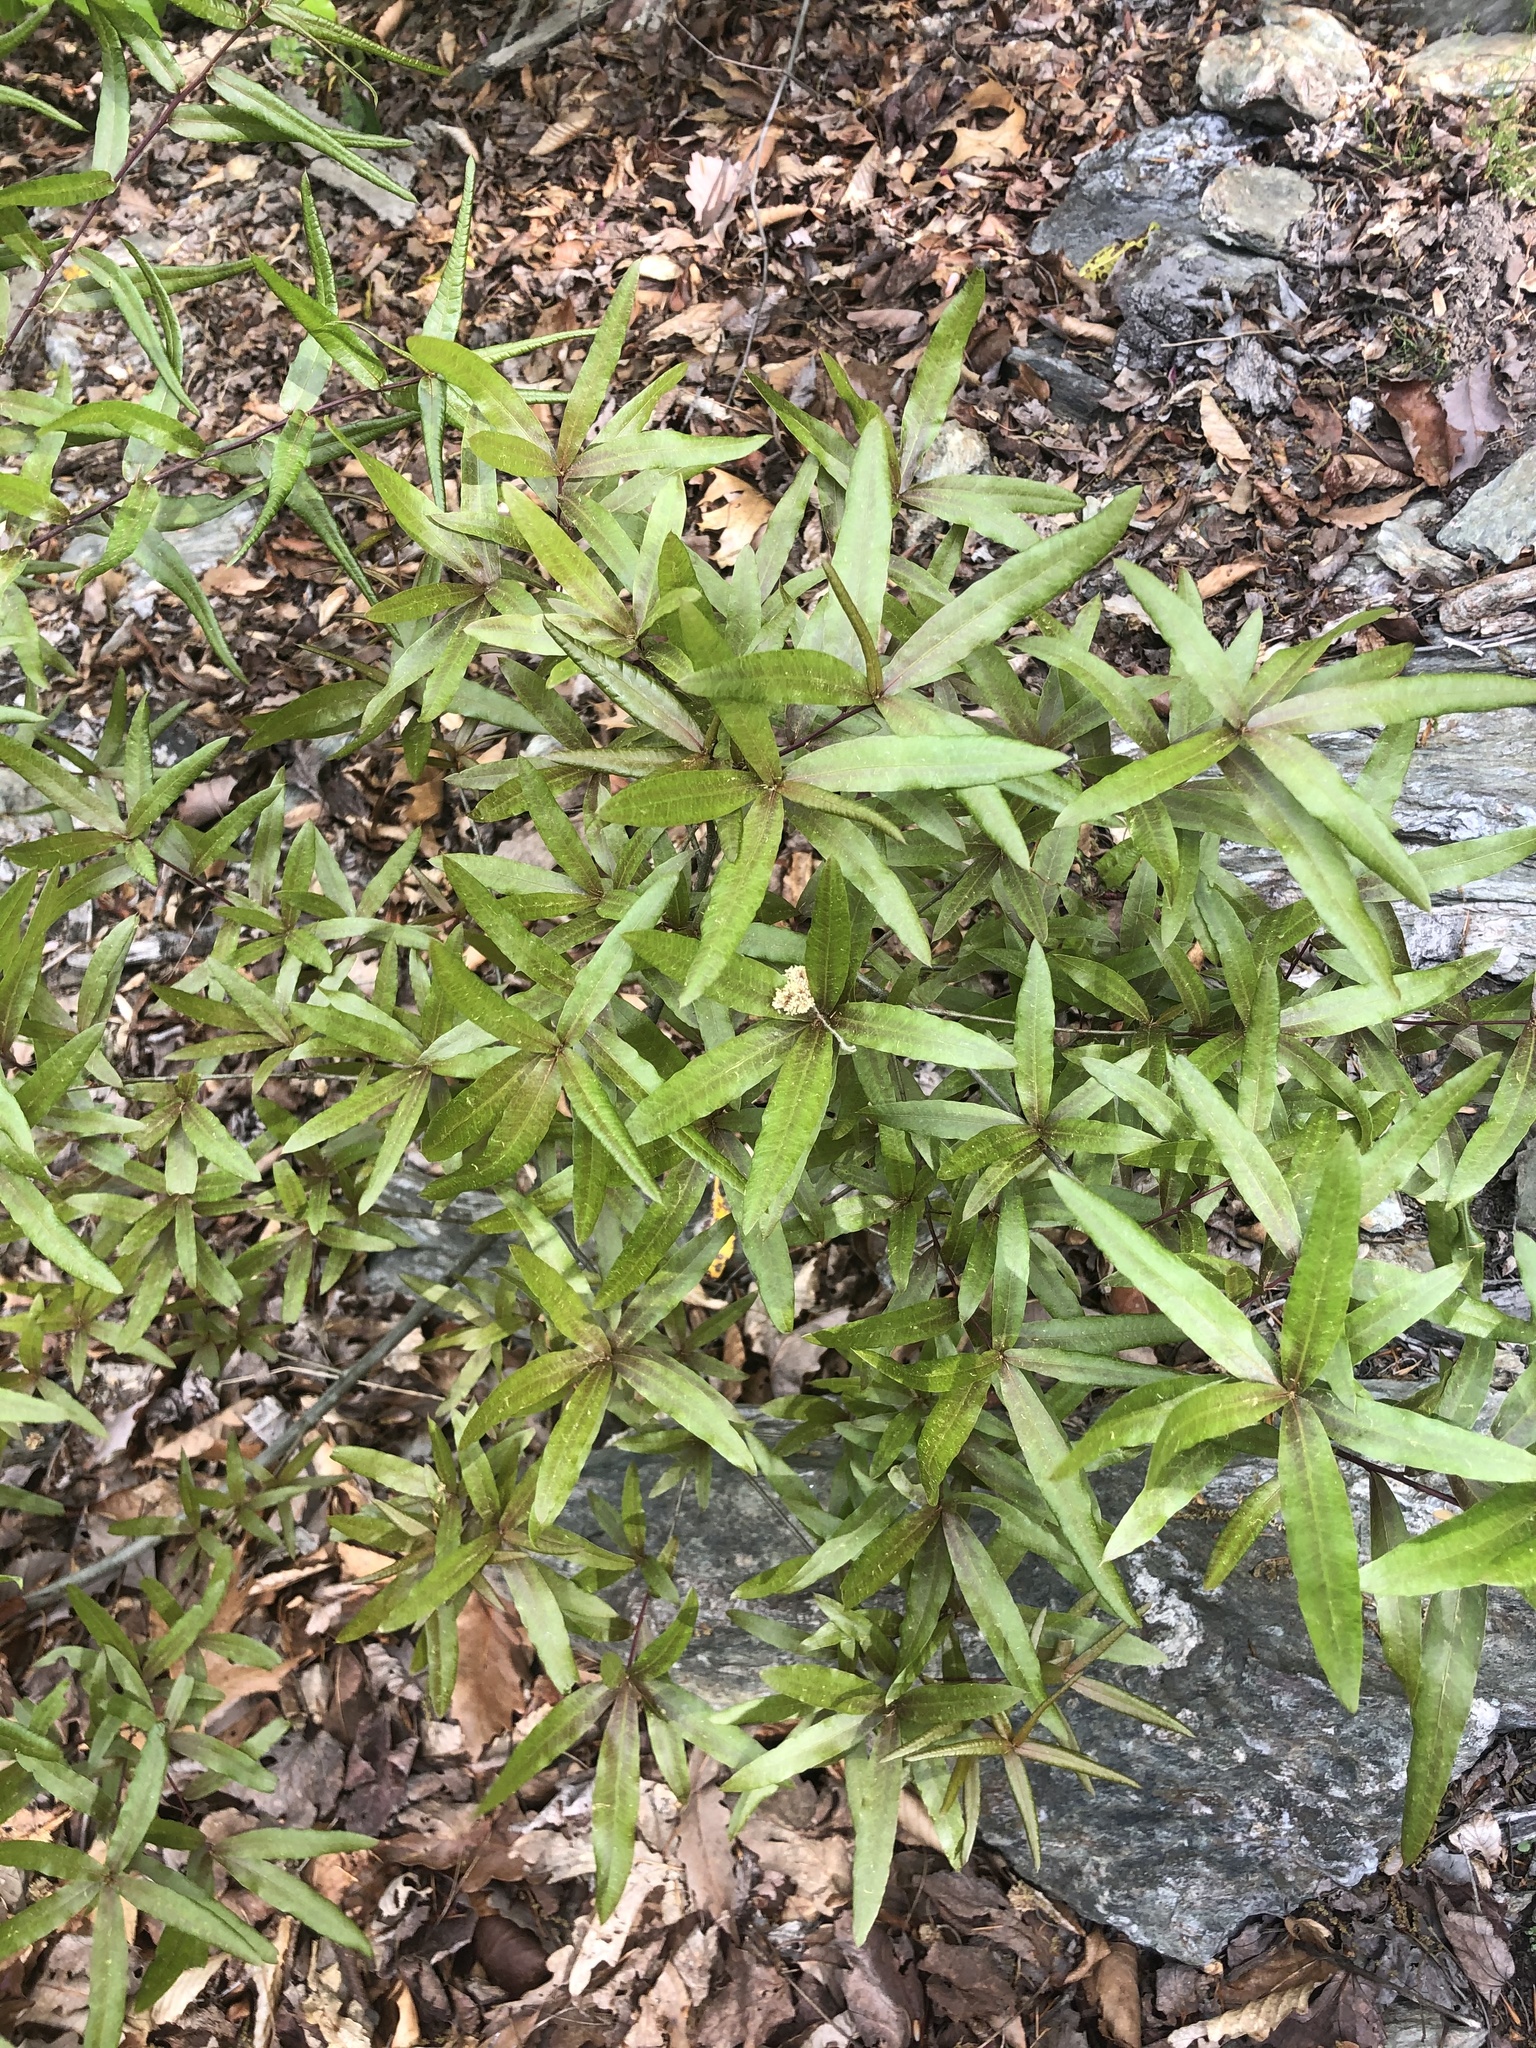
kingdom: Plantae
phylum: Tracheophyta
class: Magnoliopsida
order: Fagales
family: Fagaceae
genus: Quercus
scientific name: Quercus phellos
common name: Willow oak
